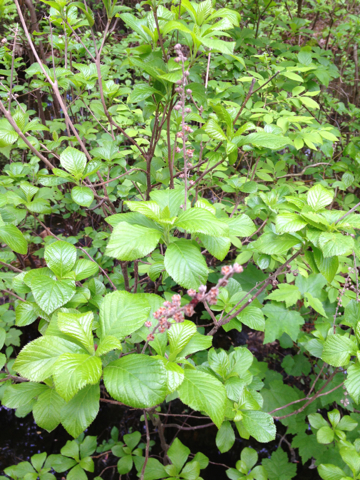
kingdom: Plantae
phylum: Tracheophyta
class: Magnoliopsida
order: Ericales
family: Clethraceae
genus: Clethra
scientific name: Clethra alnifolia
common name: Sweet pepperbush
